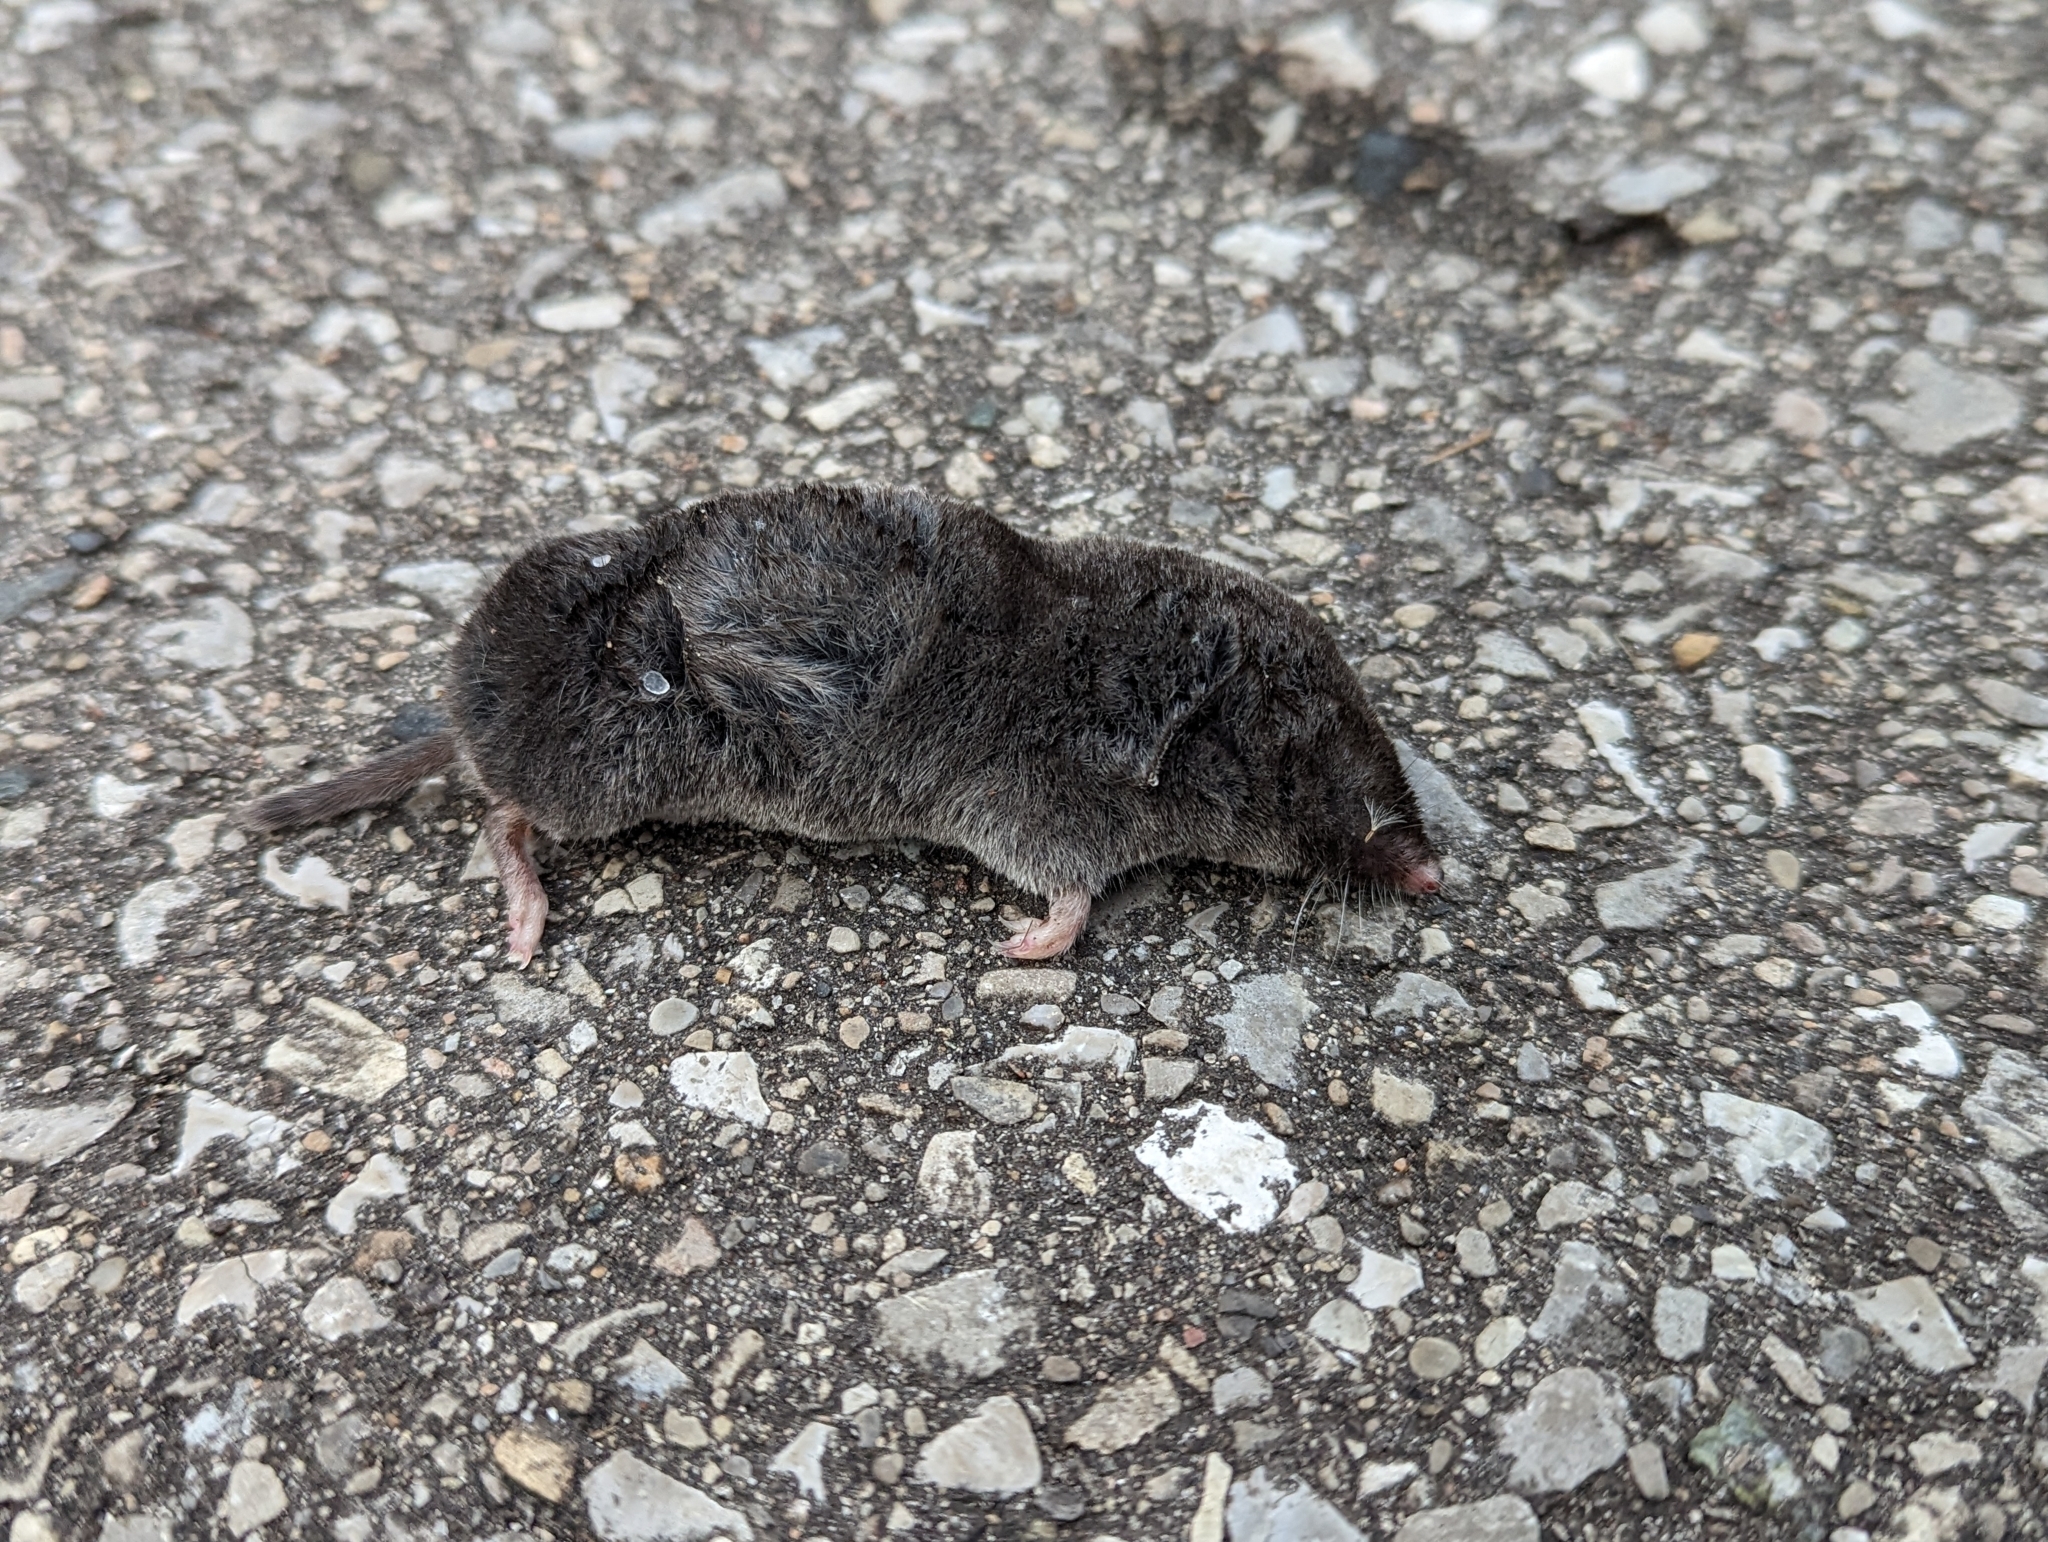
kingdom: Animalia
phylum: Chordata
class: Mammalia
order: Soricomorpha
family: Soricidae
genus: Blarina
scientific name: Blarina brevicauda
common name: Northern short-tailed shrew
